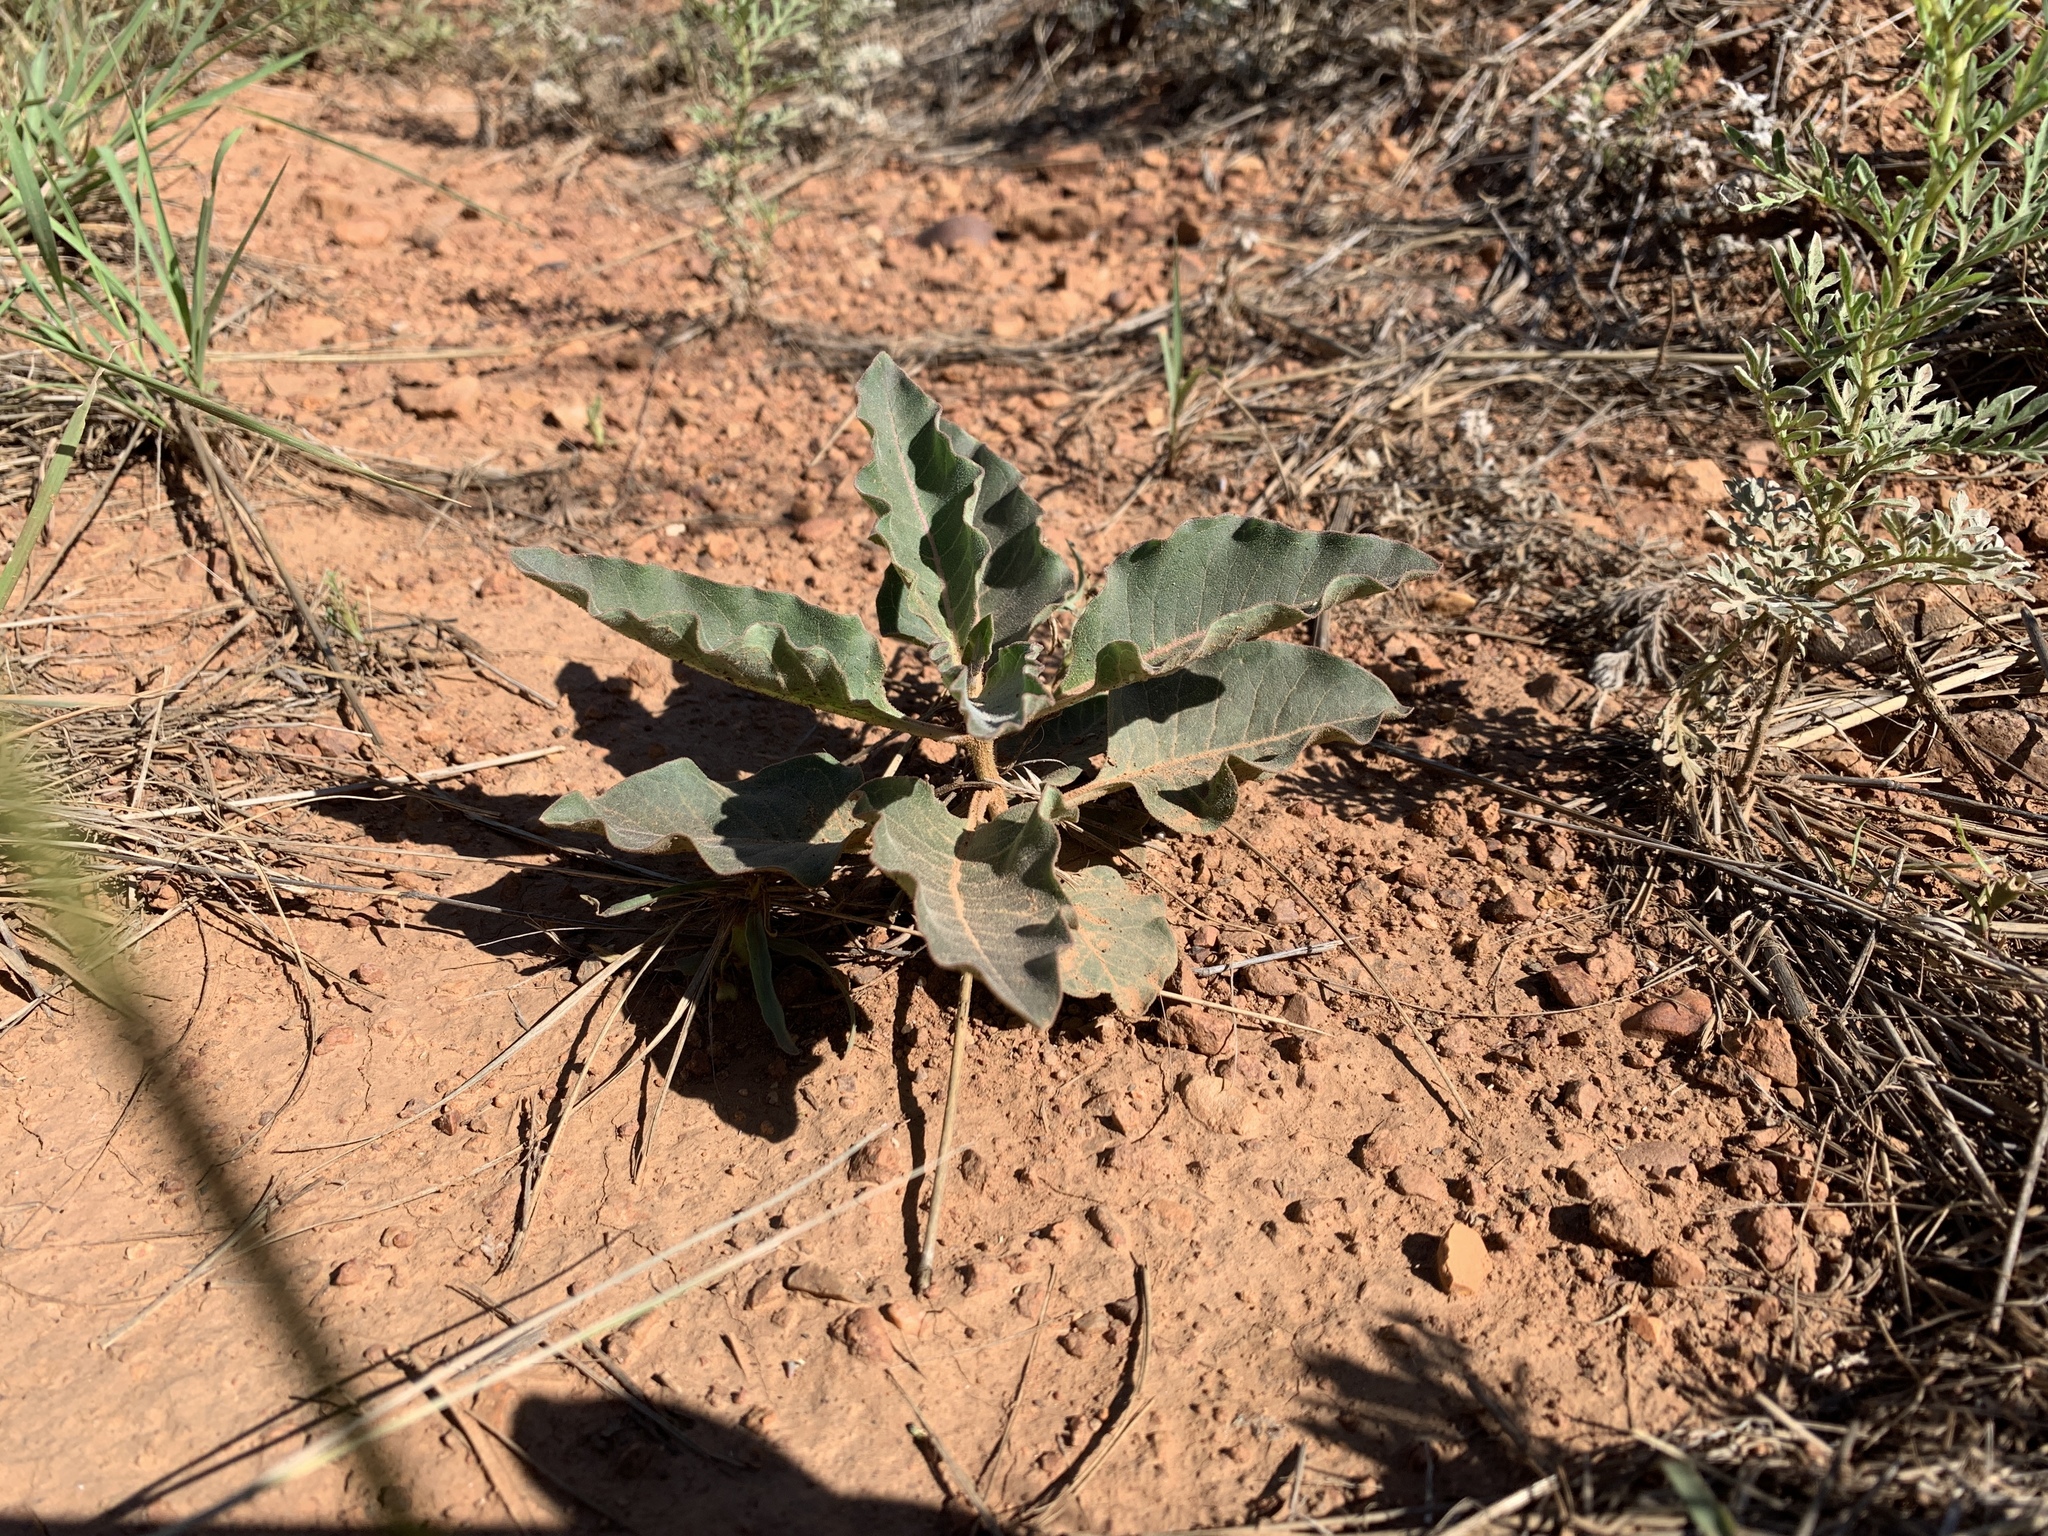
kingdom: Plantae
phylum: Tracheophyta
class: Magnoliopsida
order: Gentianales
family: Apocynaceae
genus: Asclepias
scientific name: Asclepias nyctaginifolia
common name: Mojave milkweed
